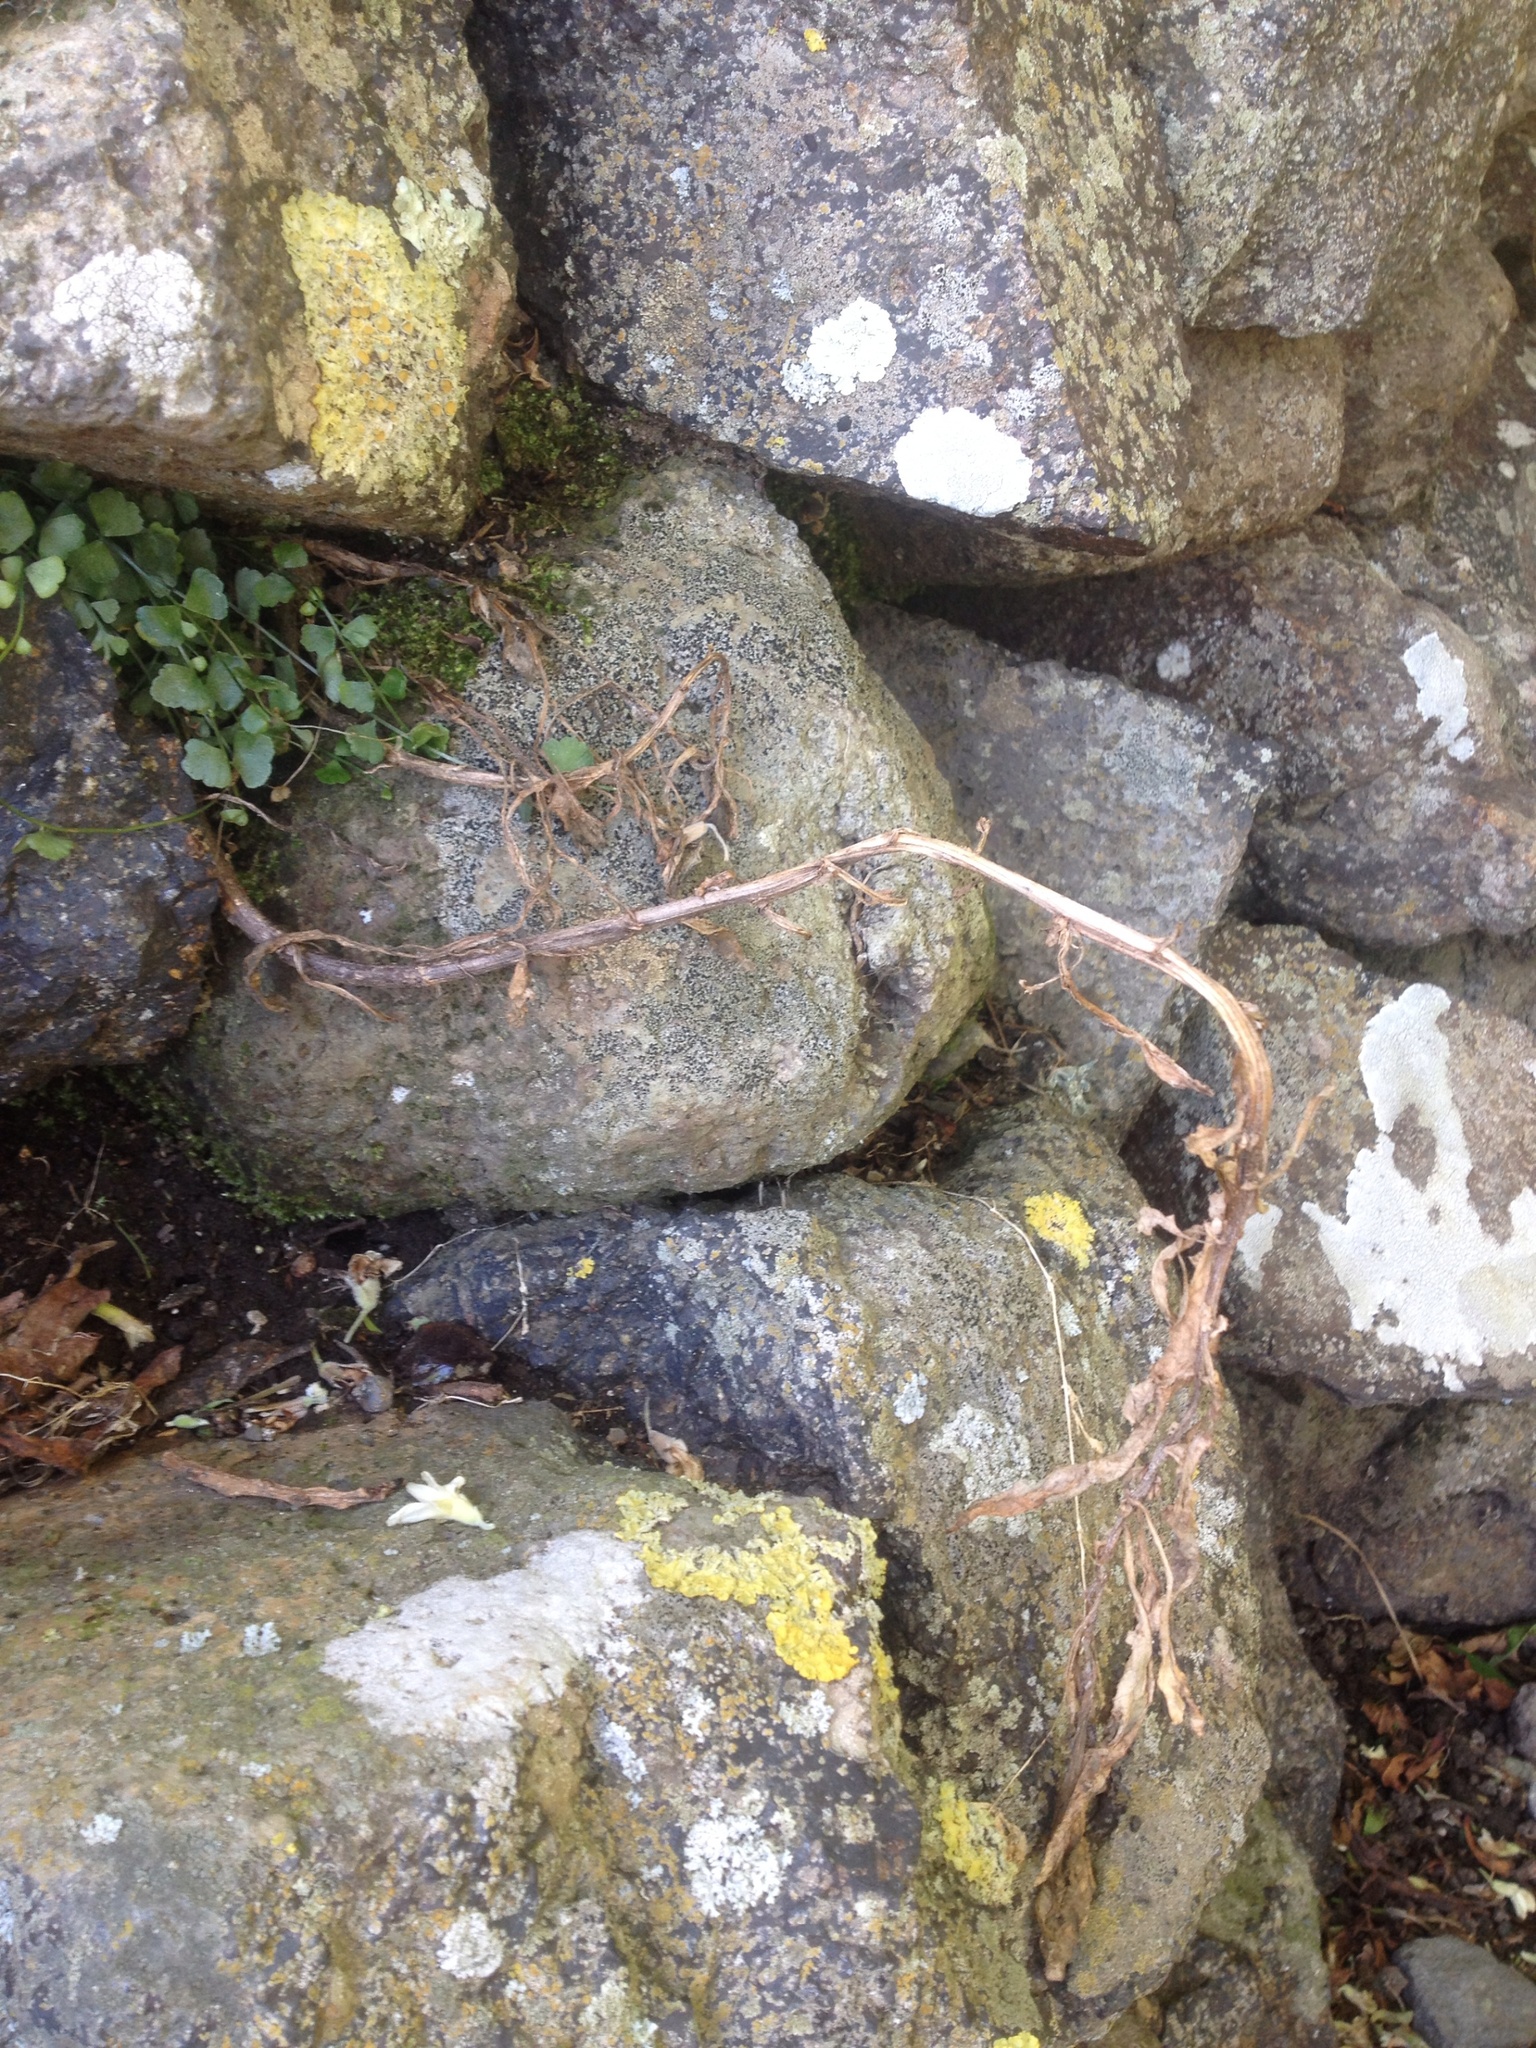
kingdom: Plantae
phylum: Tracheophyta
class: Magnoliopsida
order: Asterales
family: Asteraceae
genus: Senecio
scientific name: Senecio glomeratus
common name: Cutleaf burnweed
